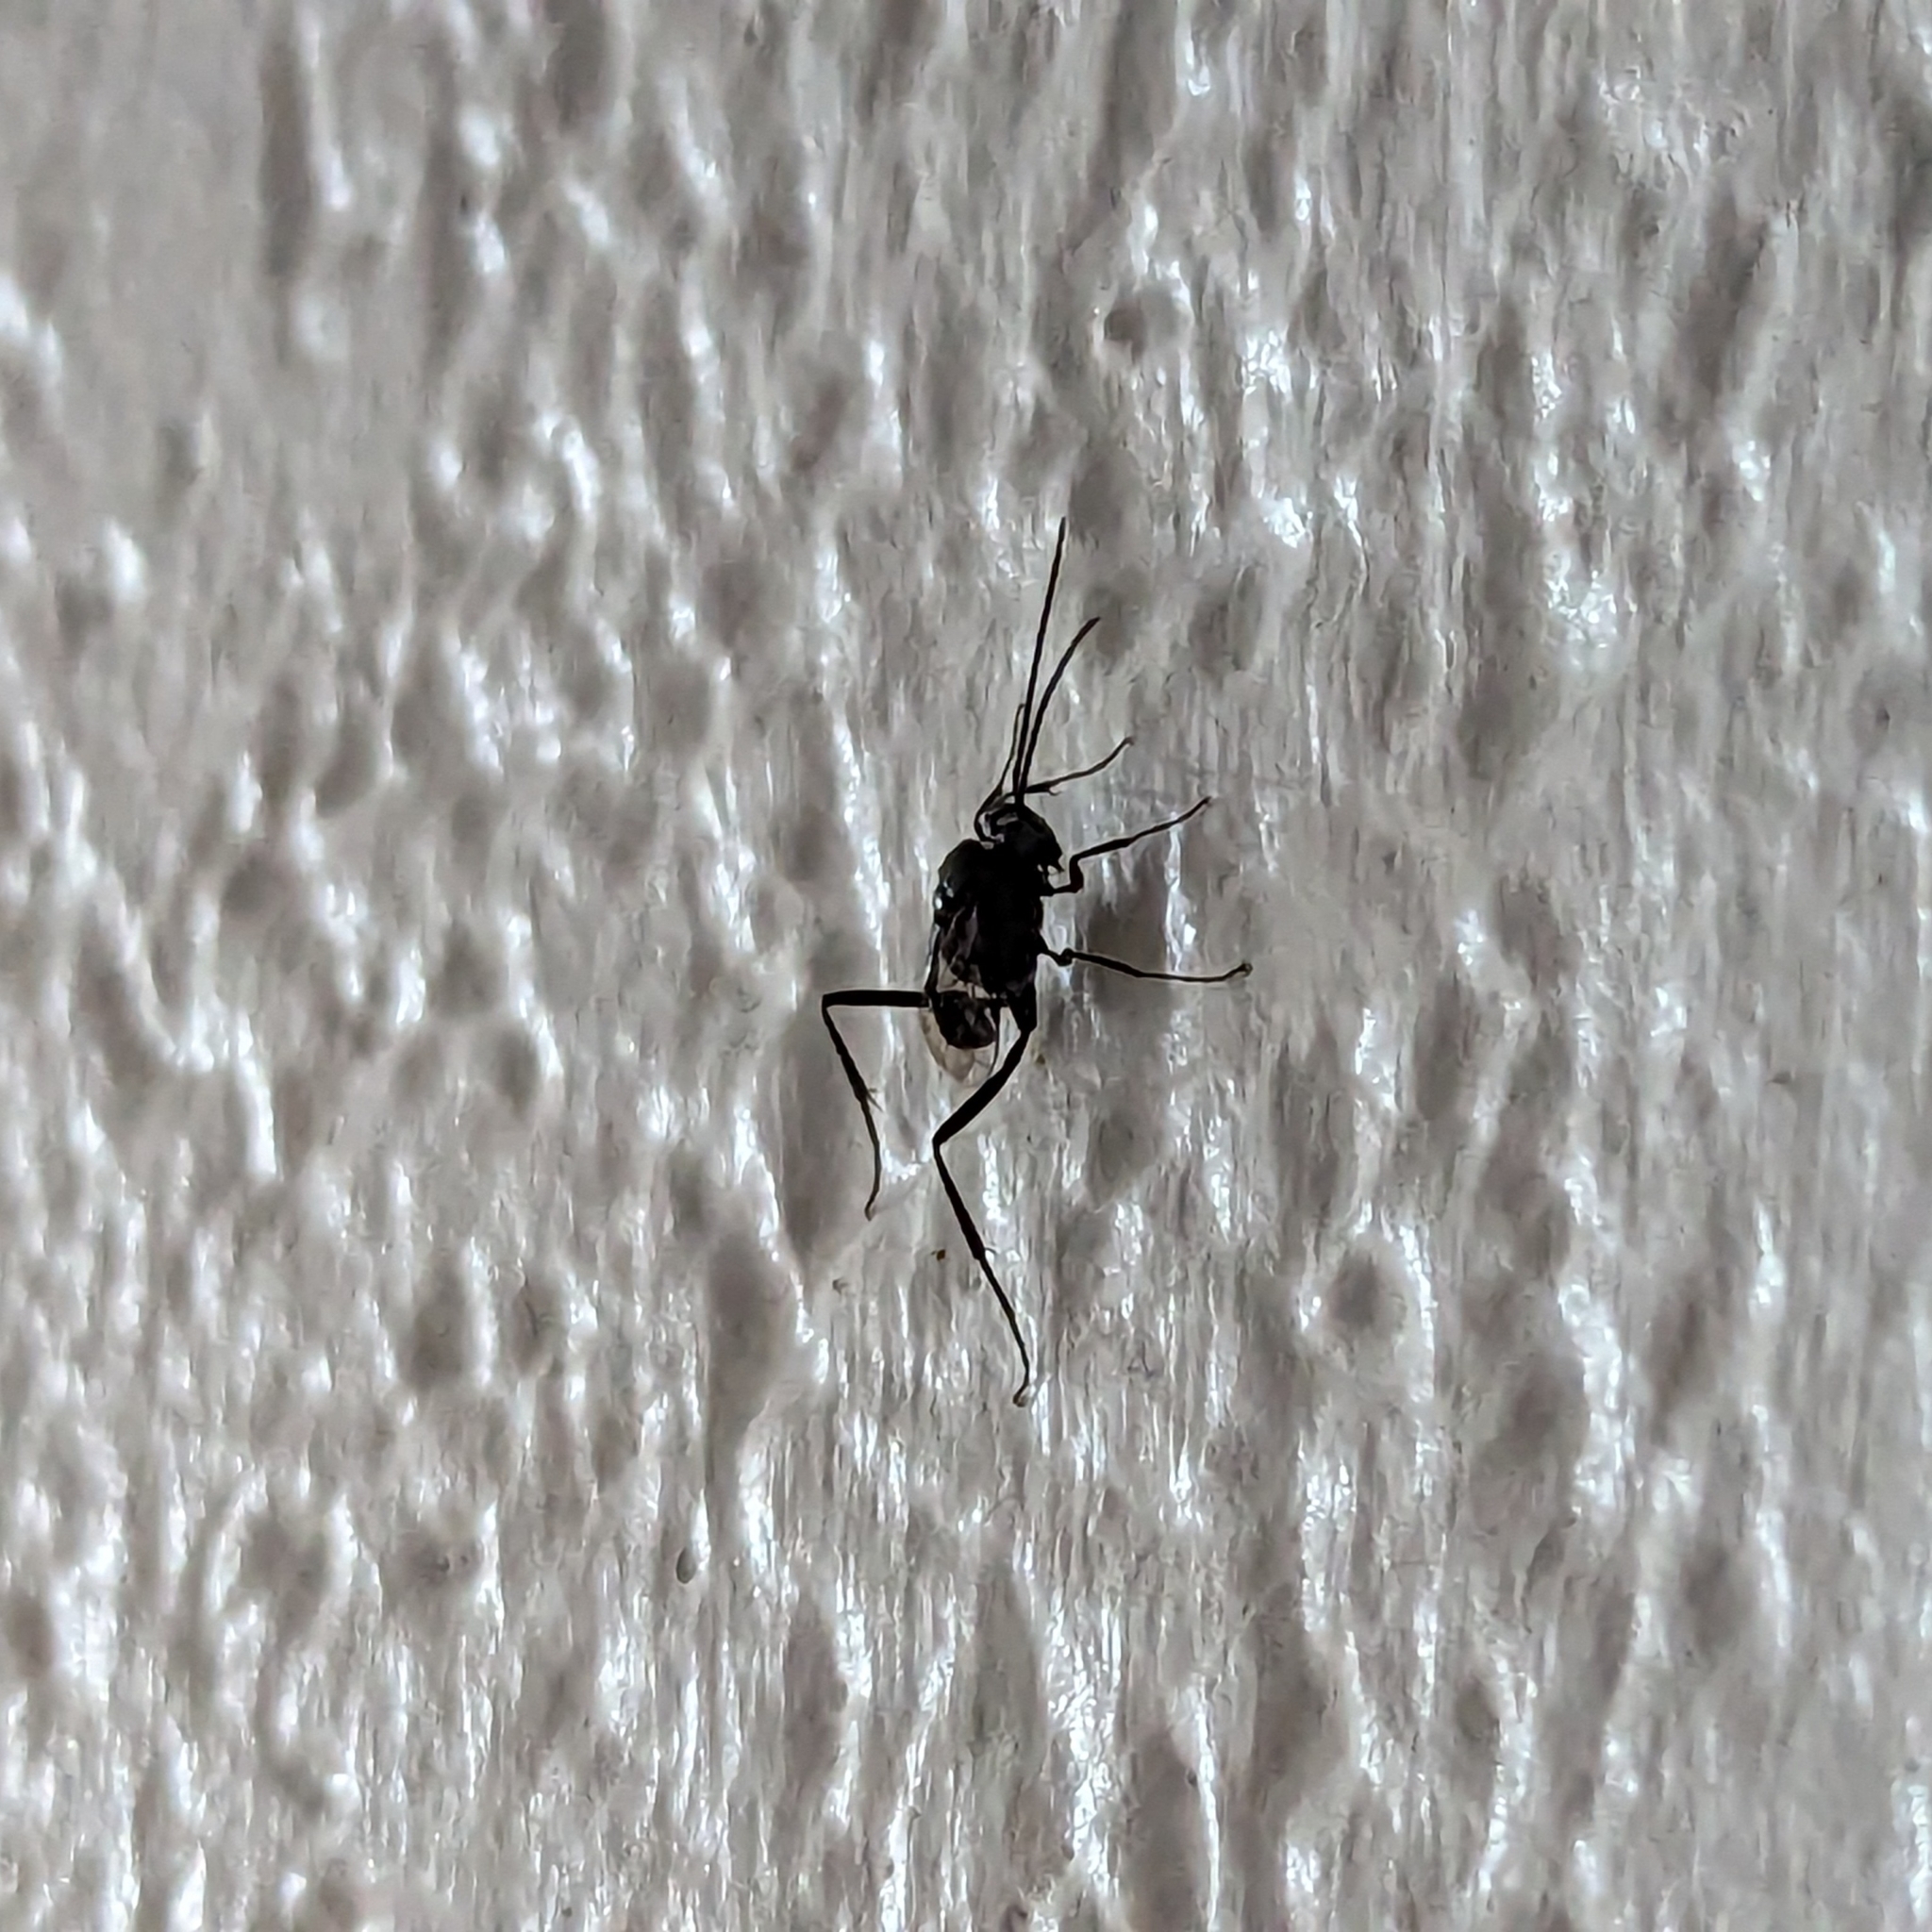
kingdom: Animalia
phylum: Arthropoda
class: Insecta
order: Hymenoptera
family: Evaniidae
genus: Evania
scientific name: Evania appendigaster
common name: Ensign wasp
